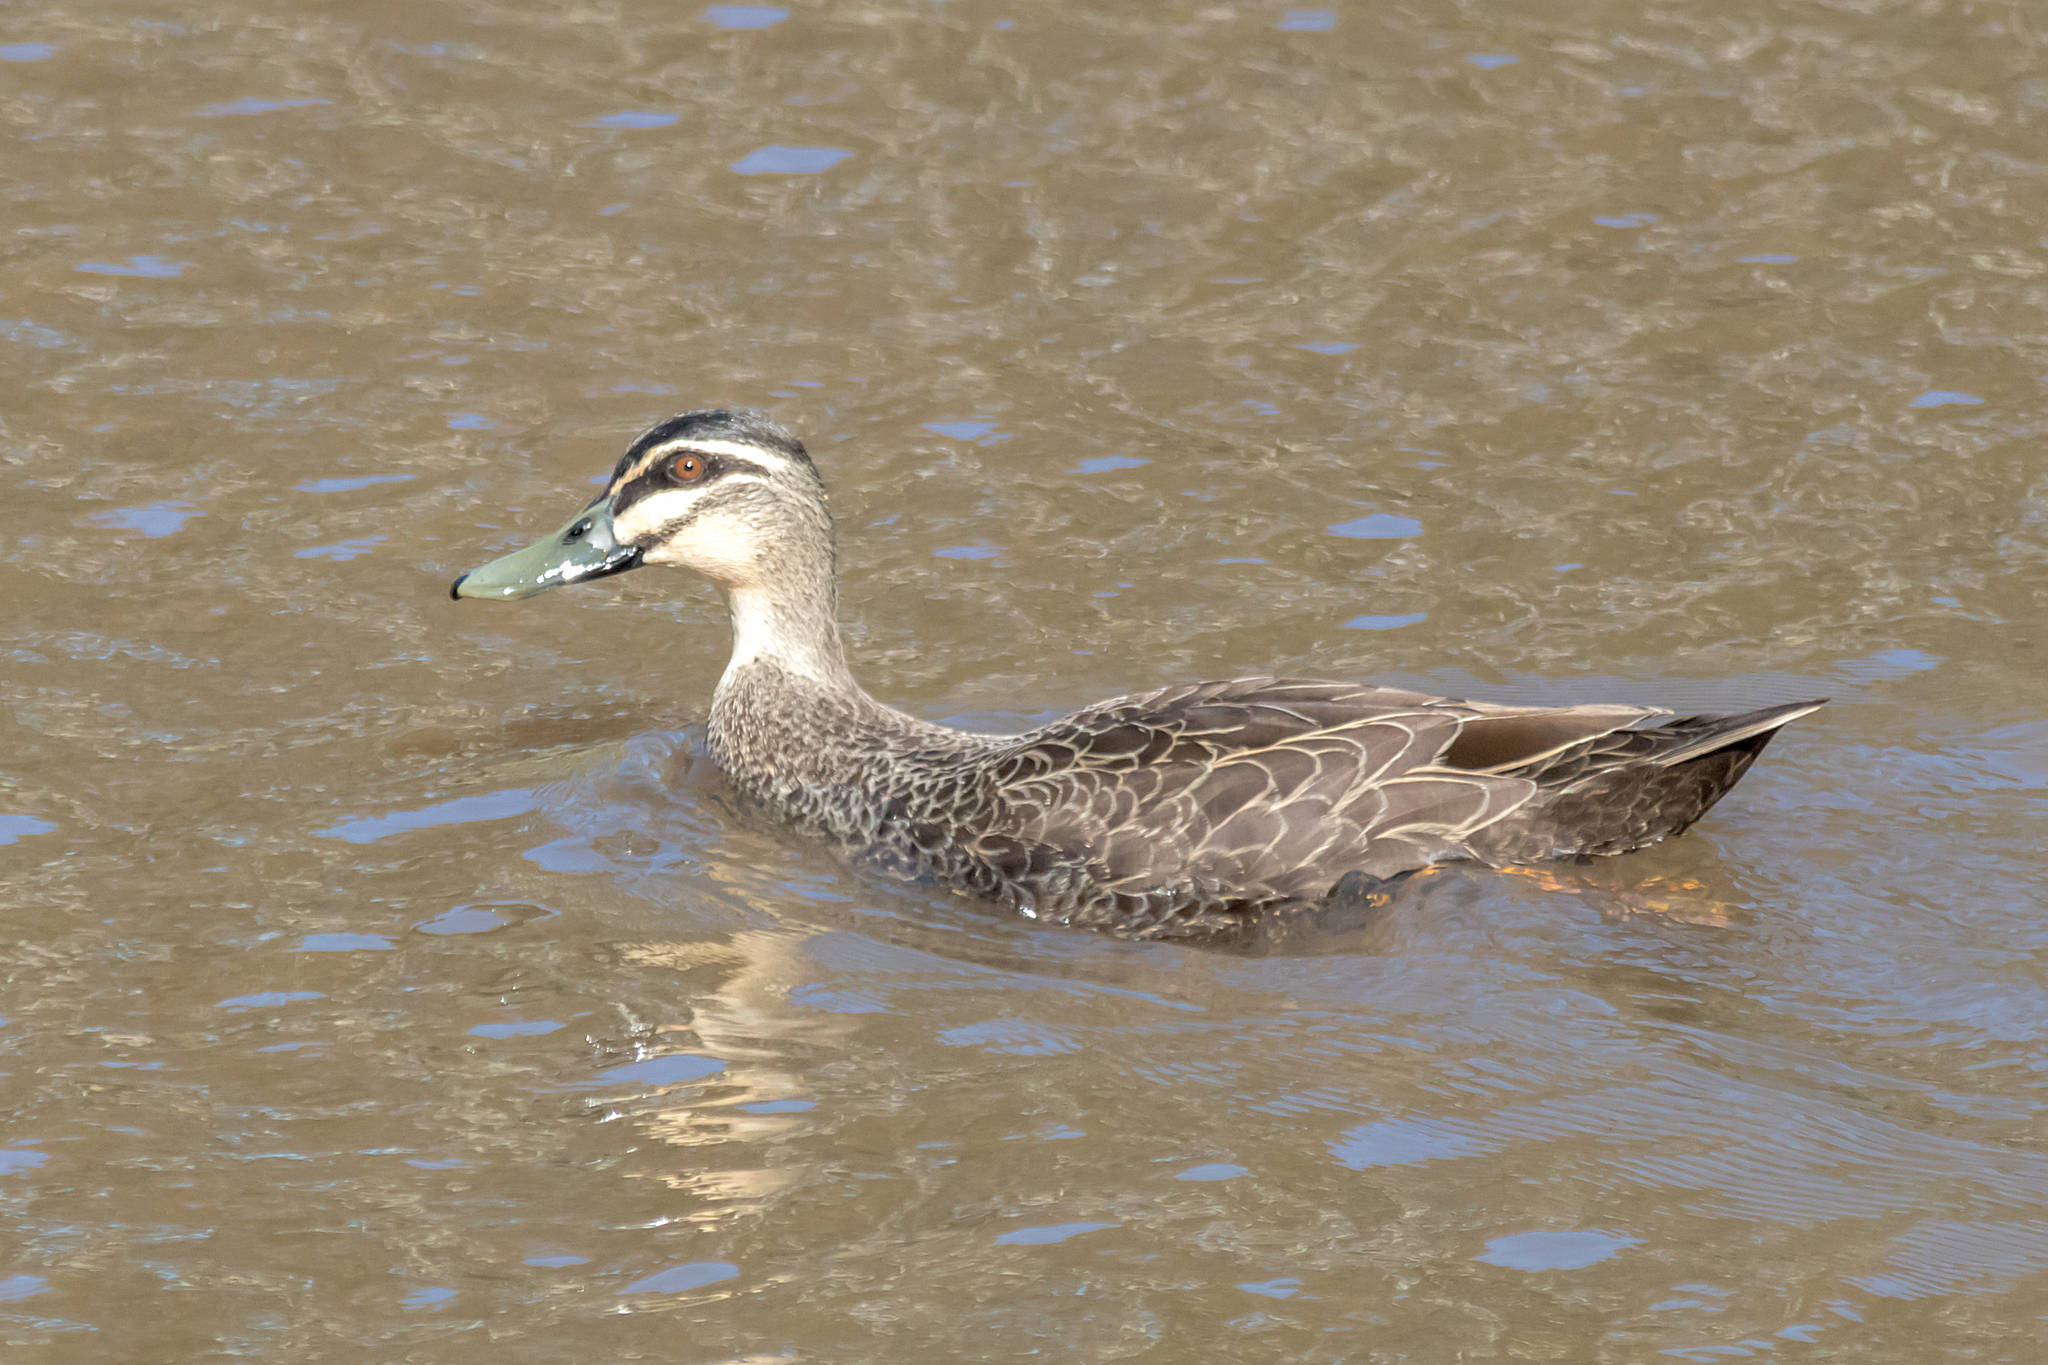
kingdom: Animalia
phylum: Chordata
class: Aves
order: Anseriformes
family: Anatidae
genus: Anas
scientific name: Anas
